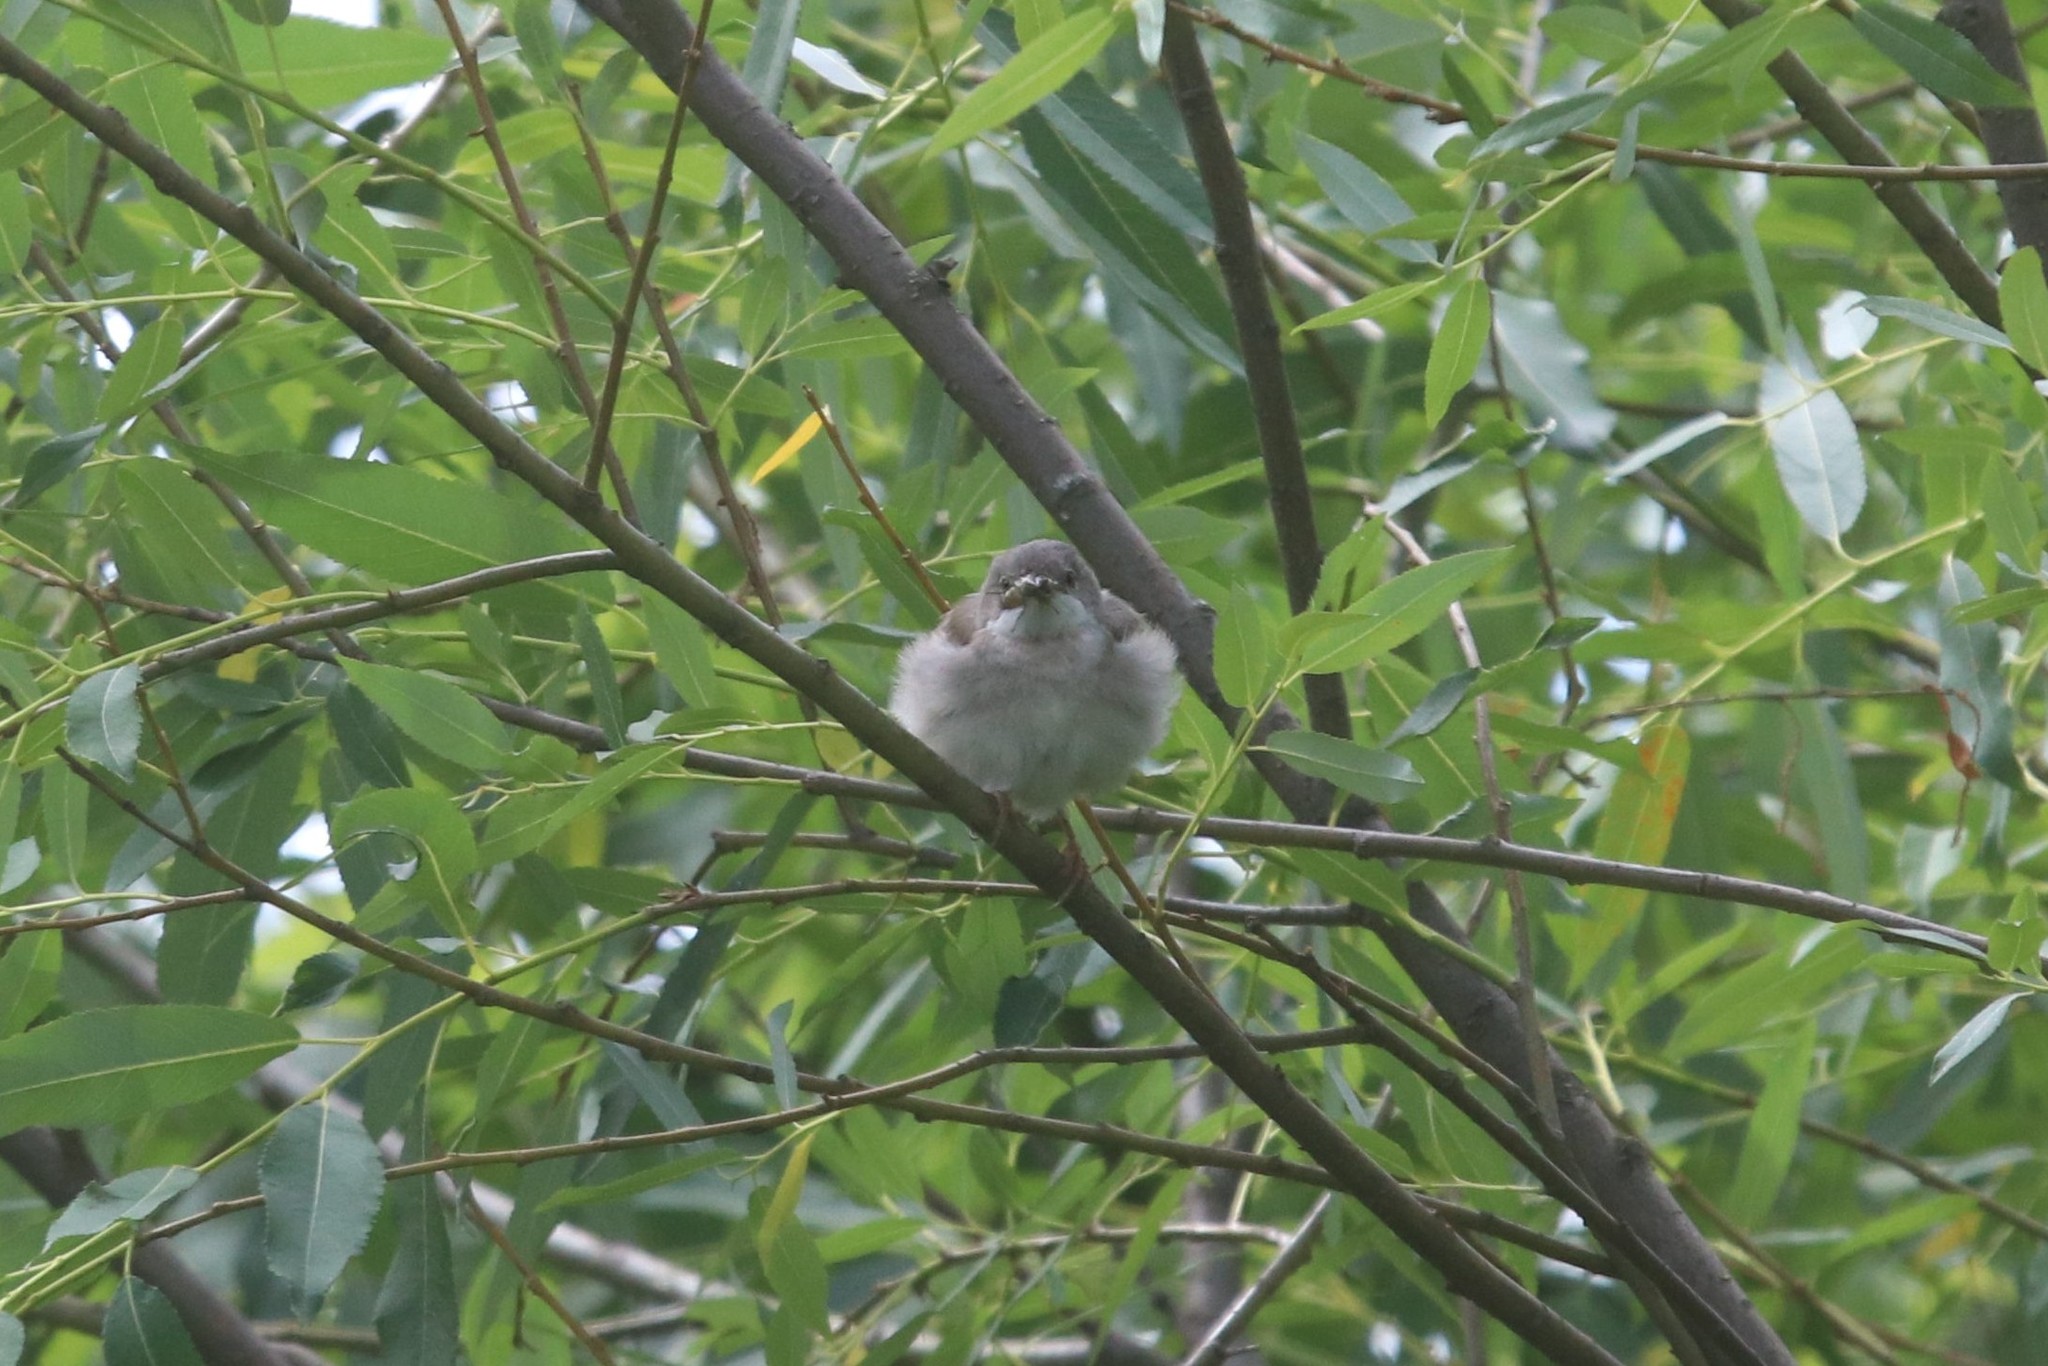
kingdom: Animalia
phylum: Chordata
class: Aves
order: Passeriformes
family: Sylviidae
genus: Sylvia
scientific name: Sylvia curruca
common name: Lesser whitethroat
